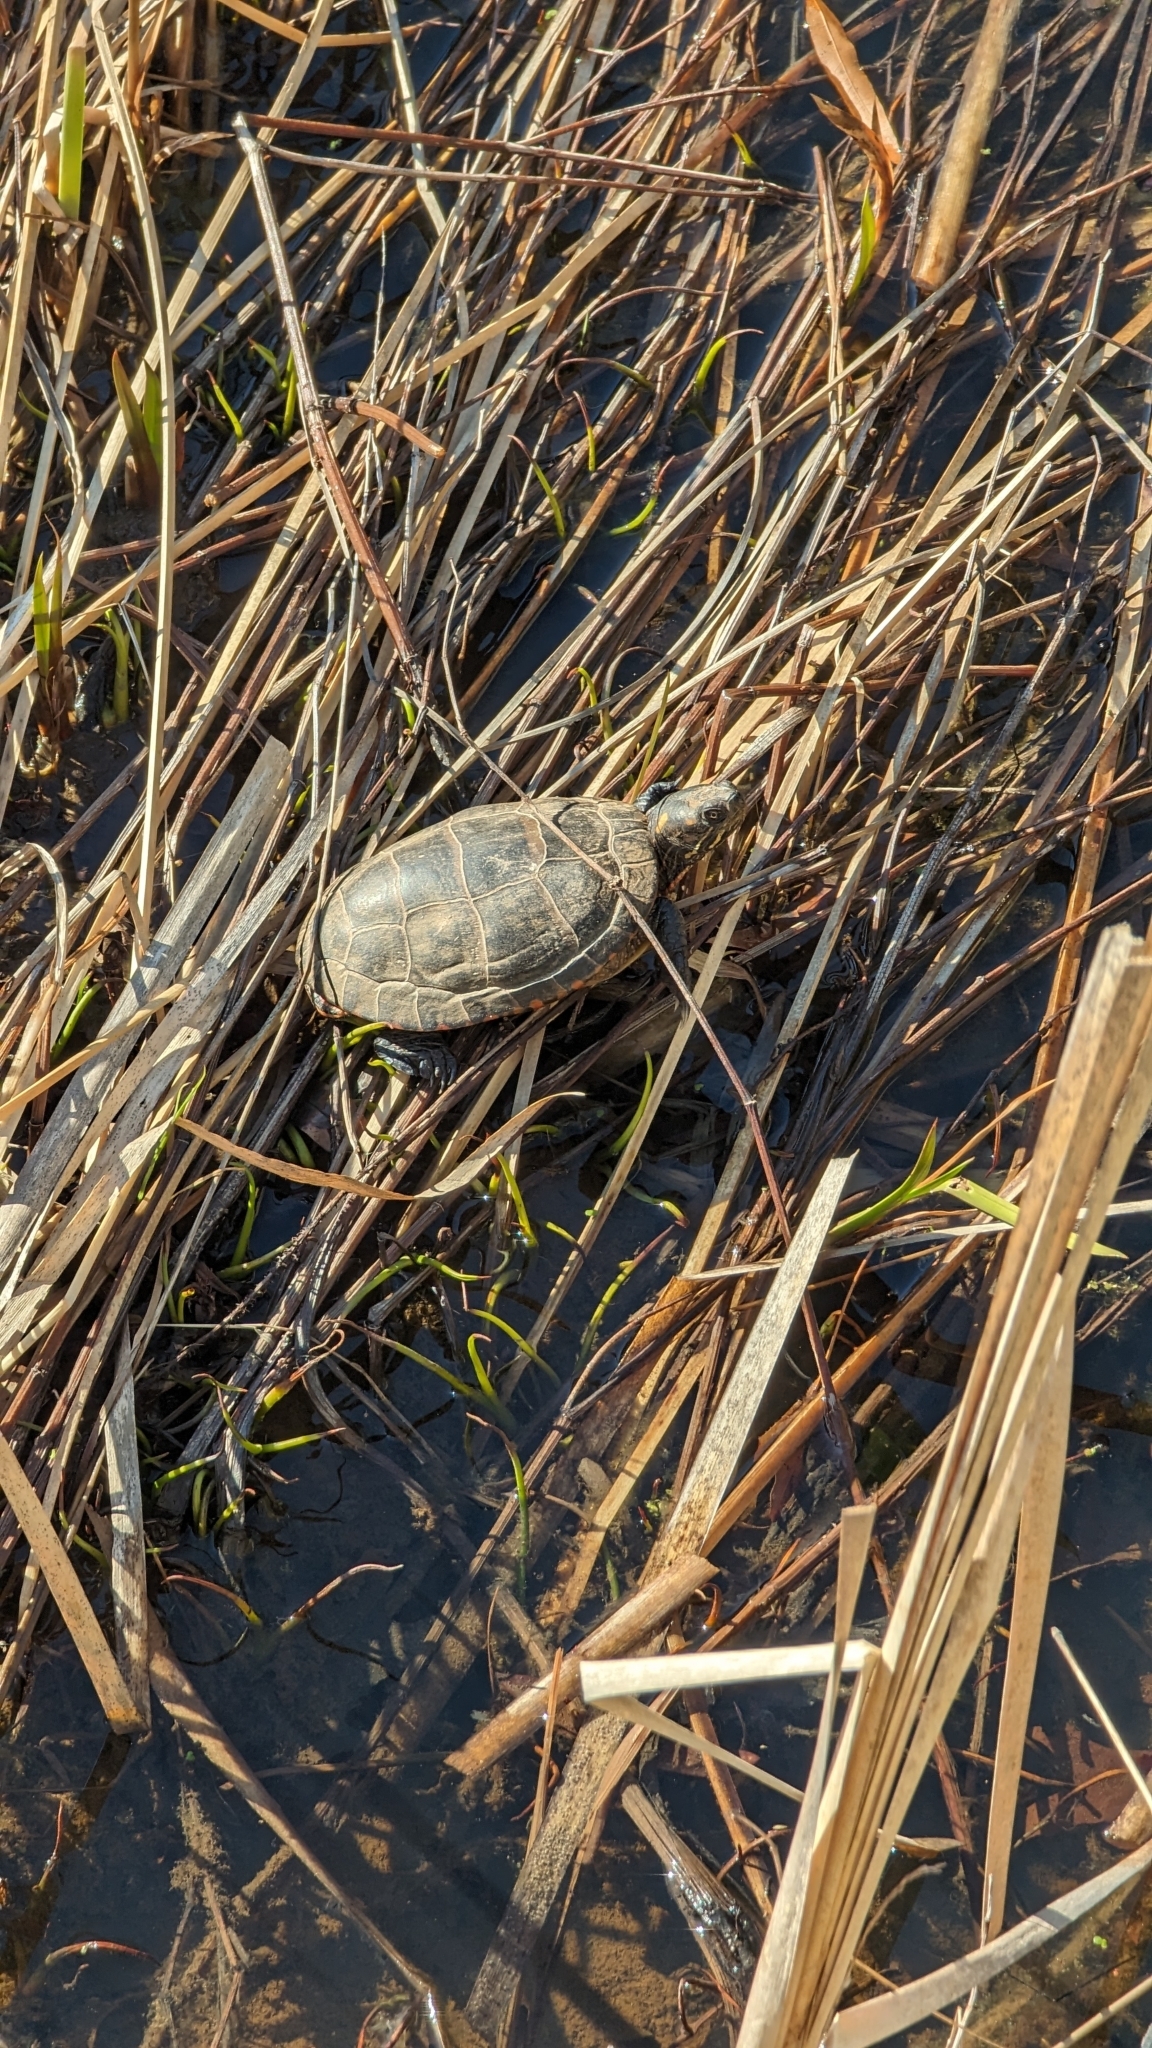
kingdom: Animalia
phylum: Chordata
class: Testudines
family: Emydidae
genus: Chrysemys
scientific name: Chrysemys picta
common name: Painted turtle
